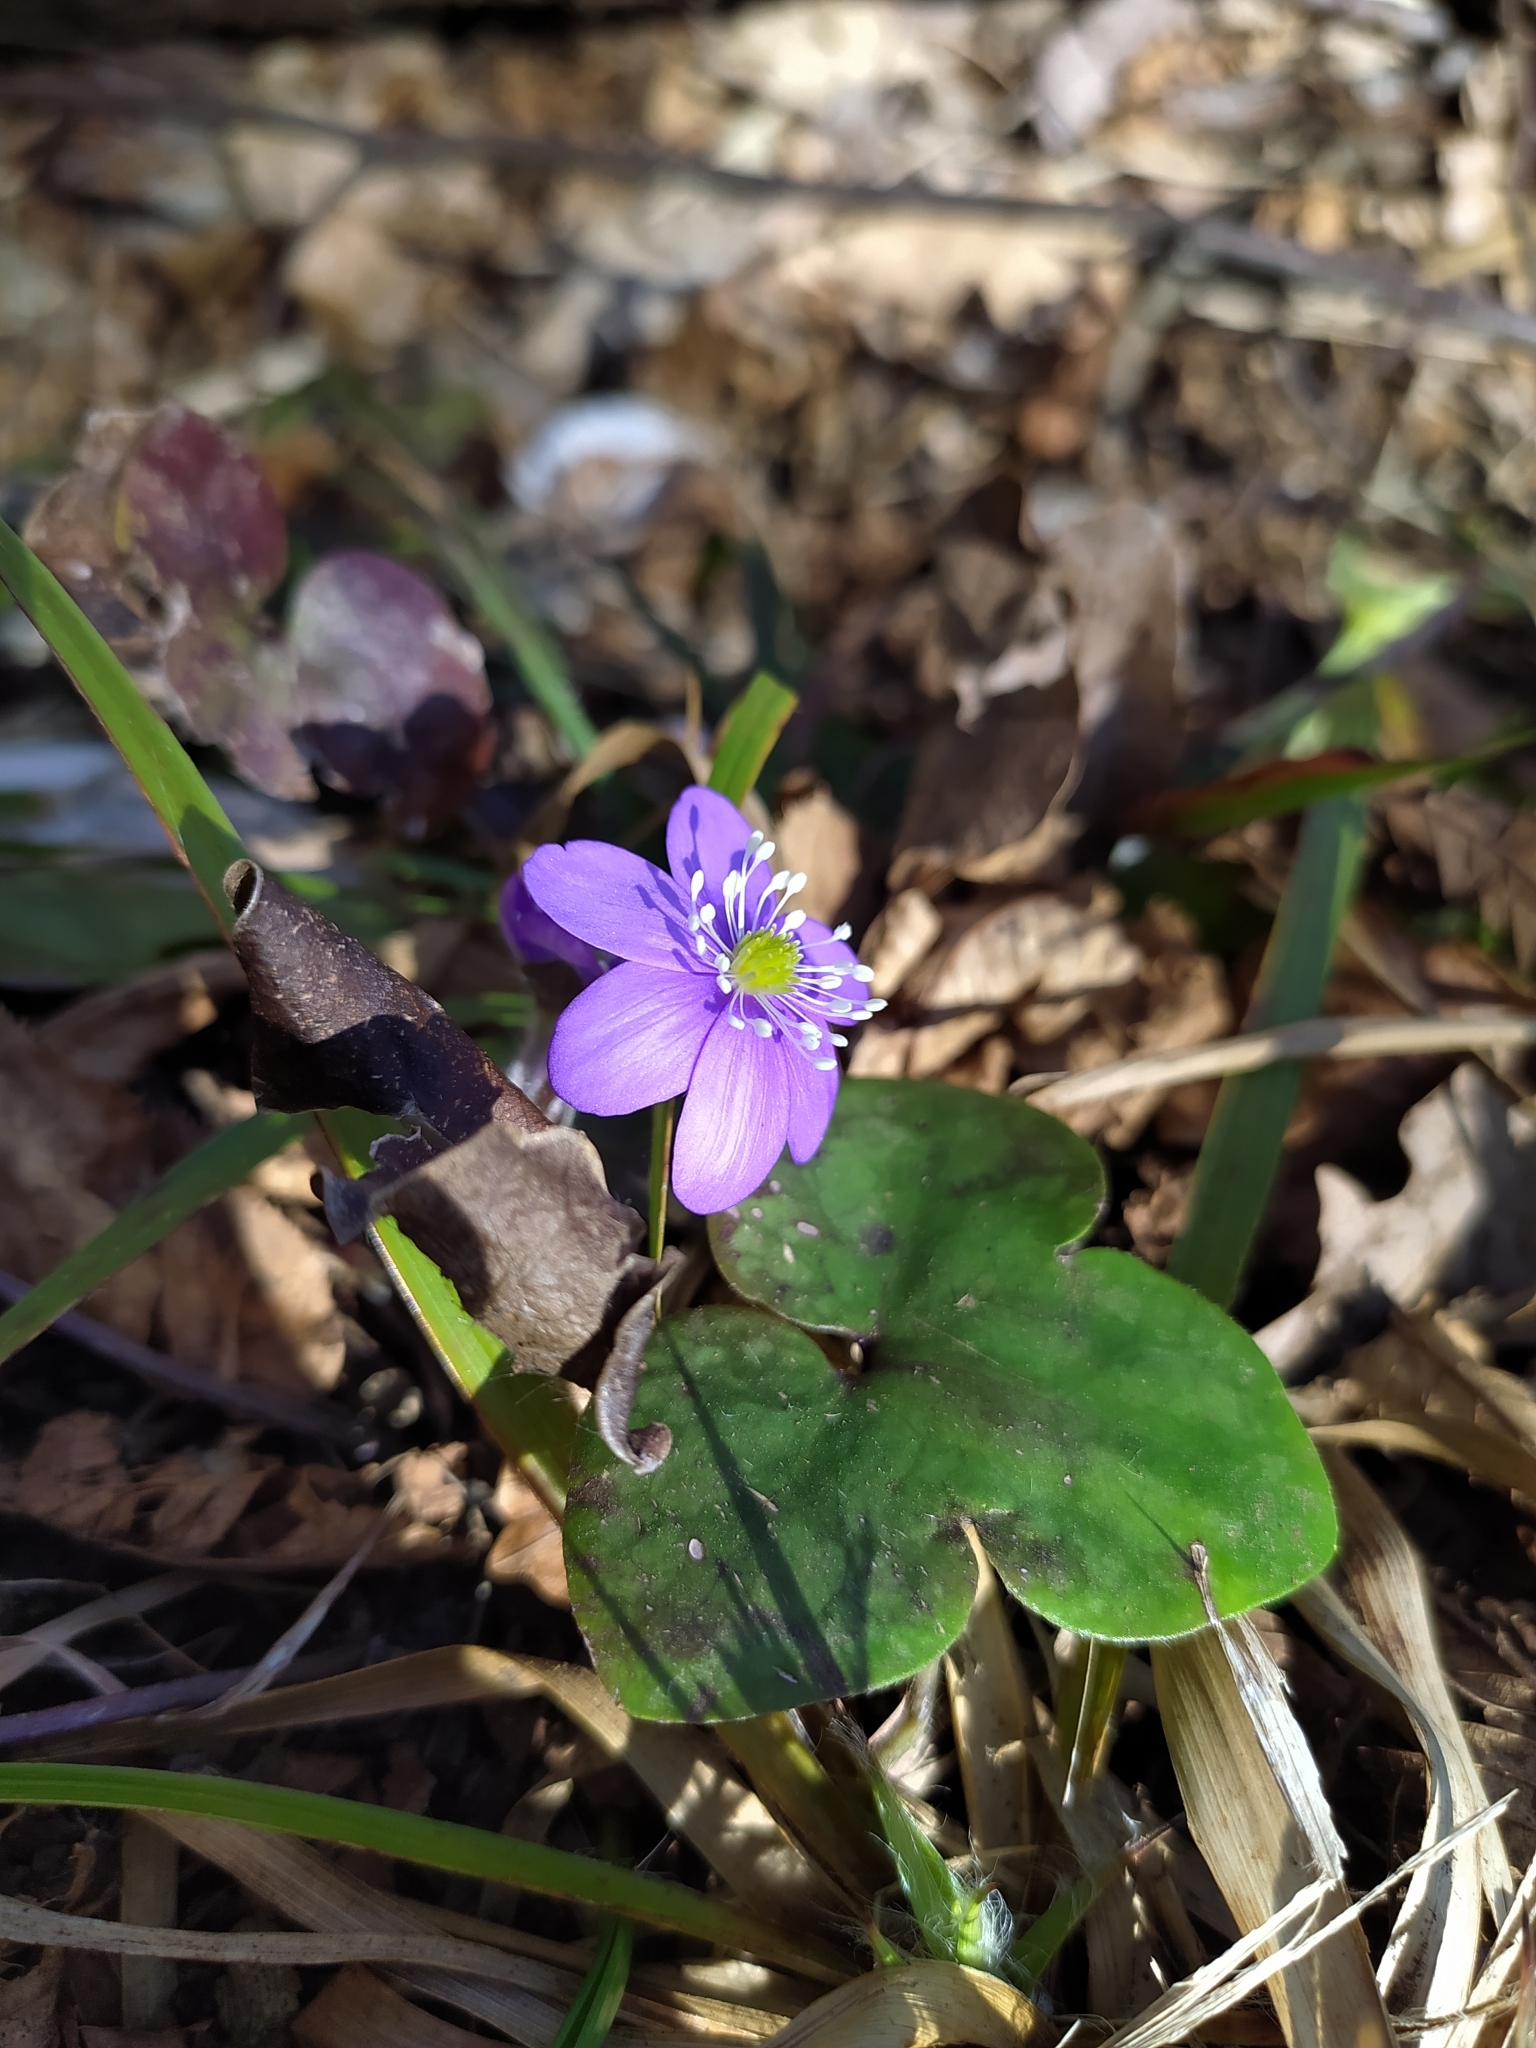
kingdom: Plantae
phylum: Tracheophyta
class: Magnoliopsida
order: Ranunculales
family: Ranunculaceae
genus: Hepatica
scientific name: Hepatica nobilis
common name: Liverleaf
